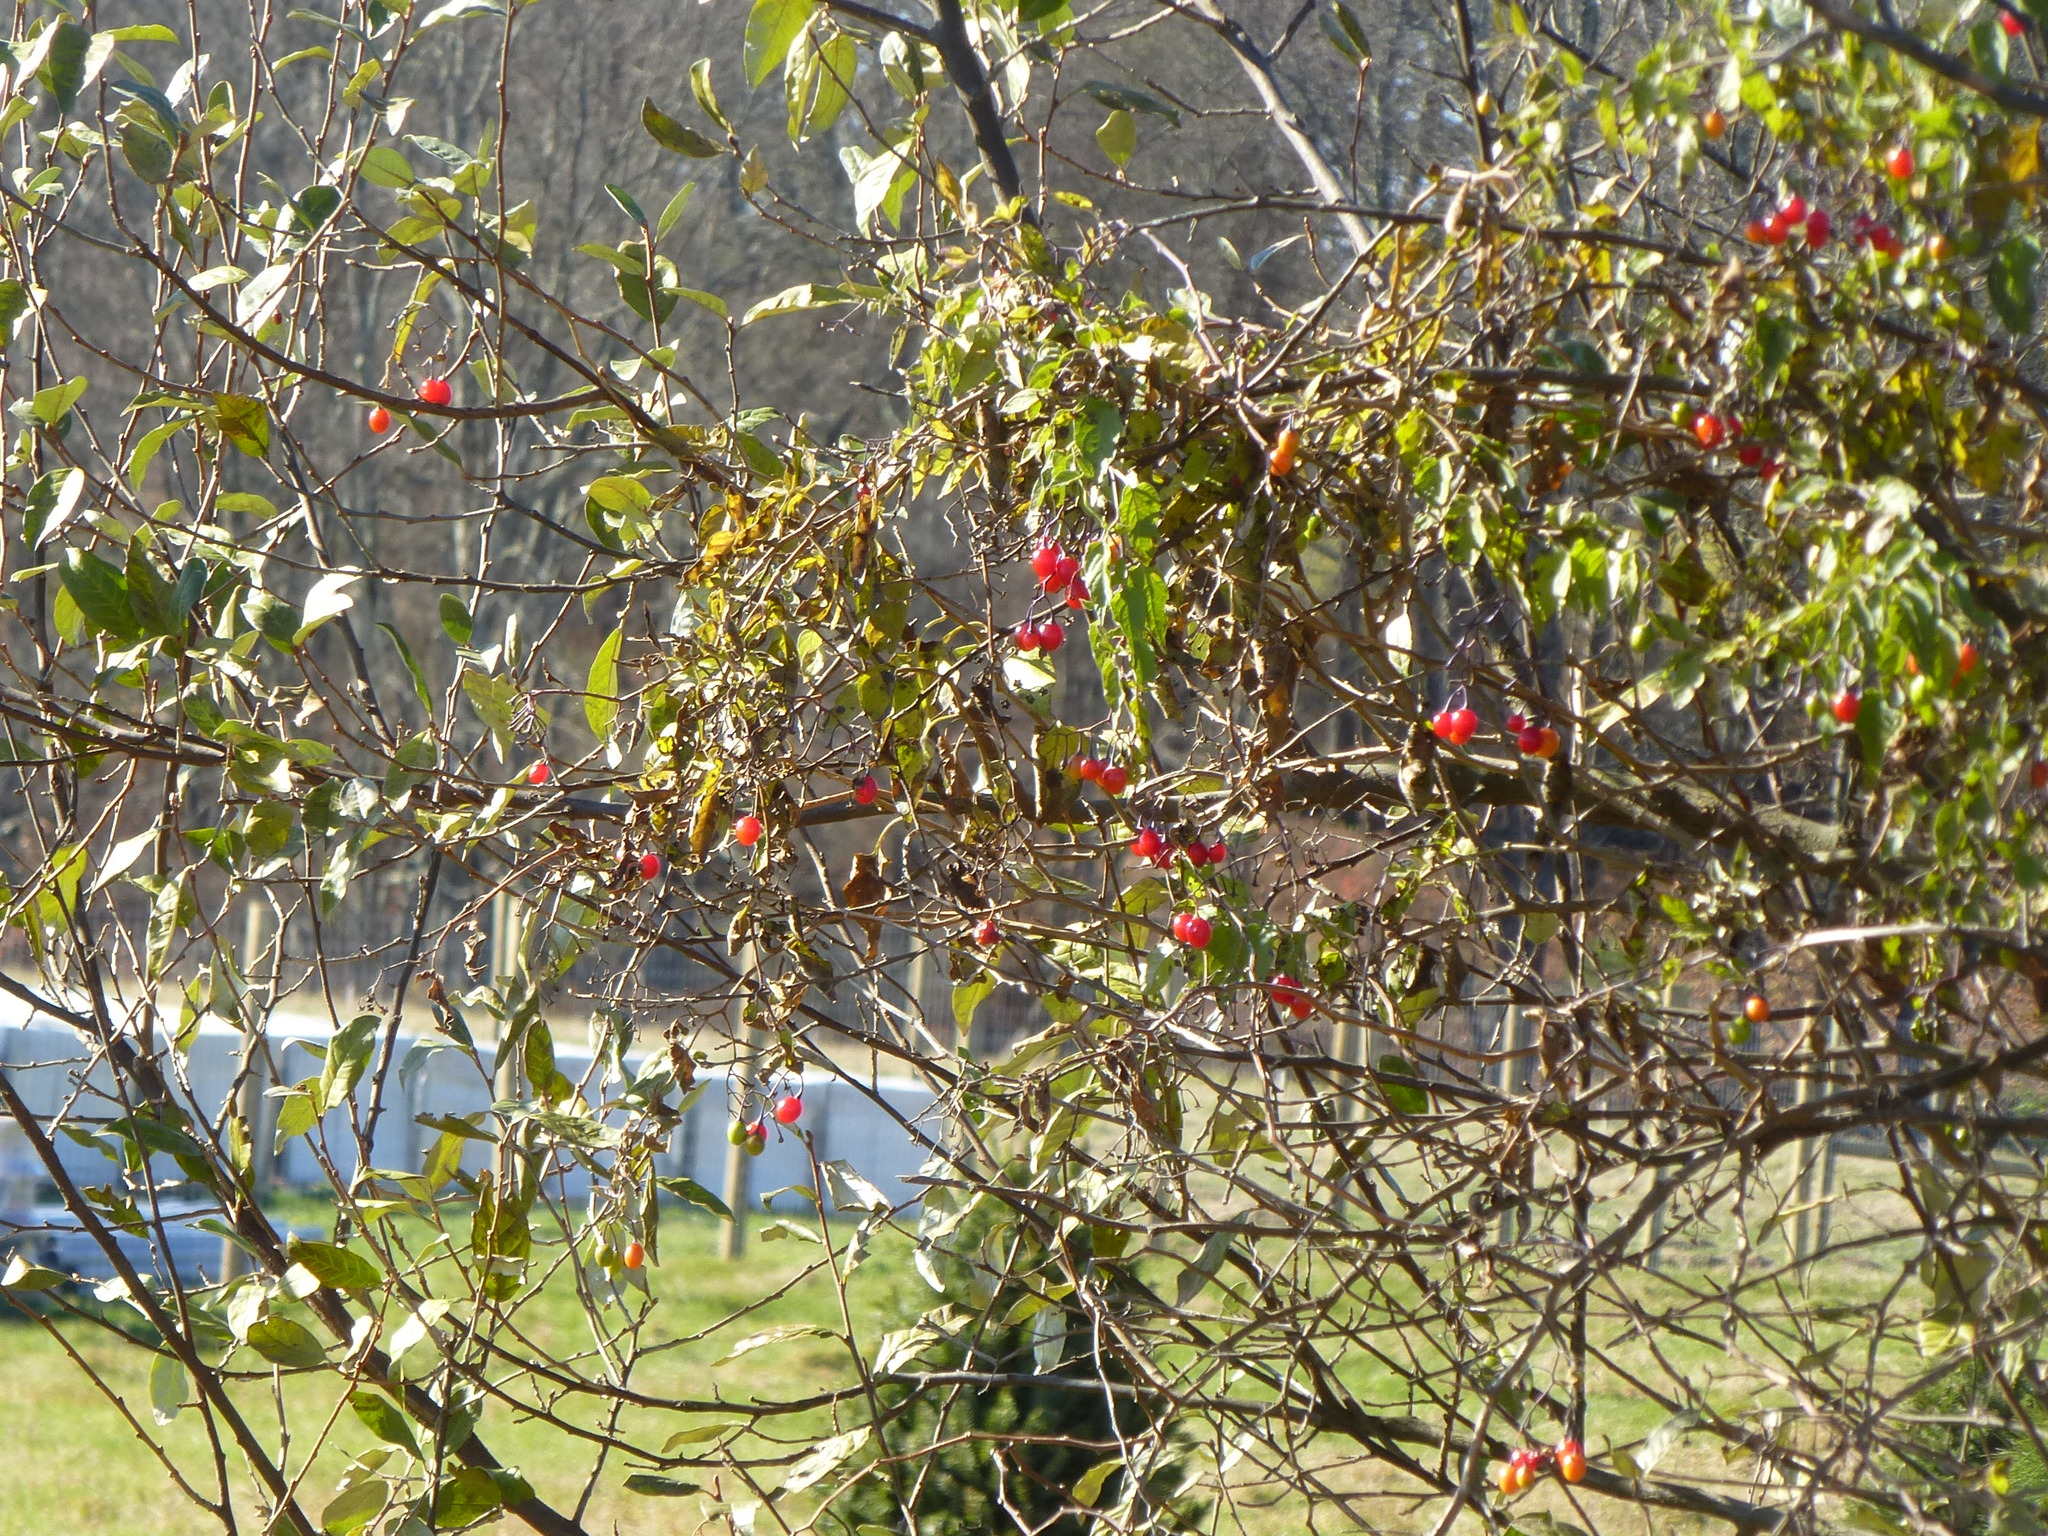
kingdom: Plantae
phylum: Tracheophyta
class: Magnoliopsida
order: Solanales
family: Solanaceae
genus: Solanum
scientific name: Solanum dulcamara
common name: Climbing nightshade
